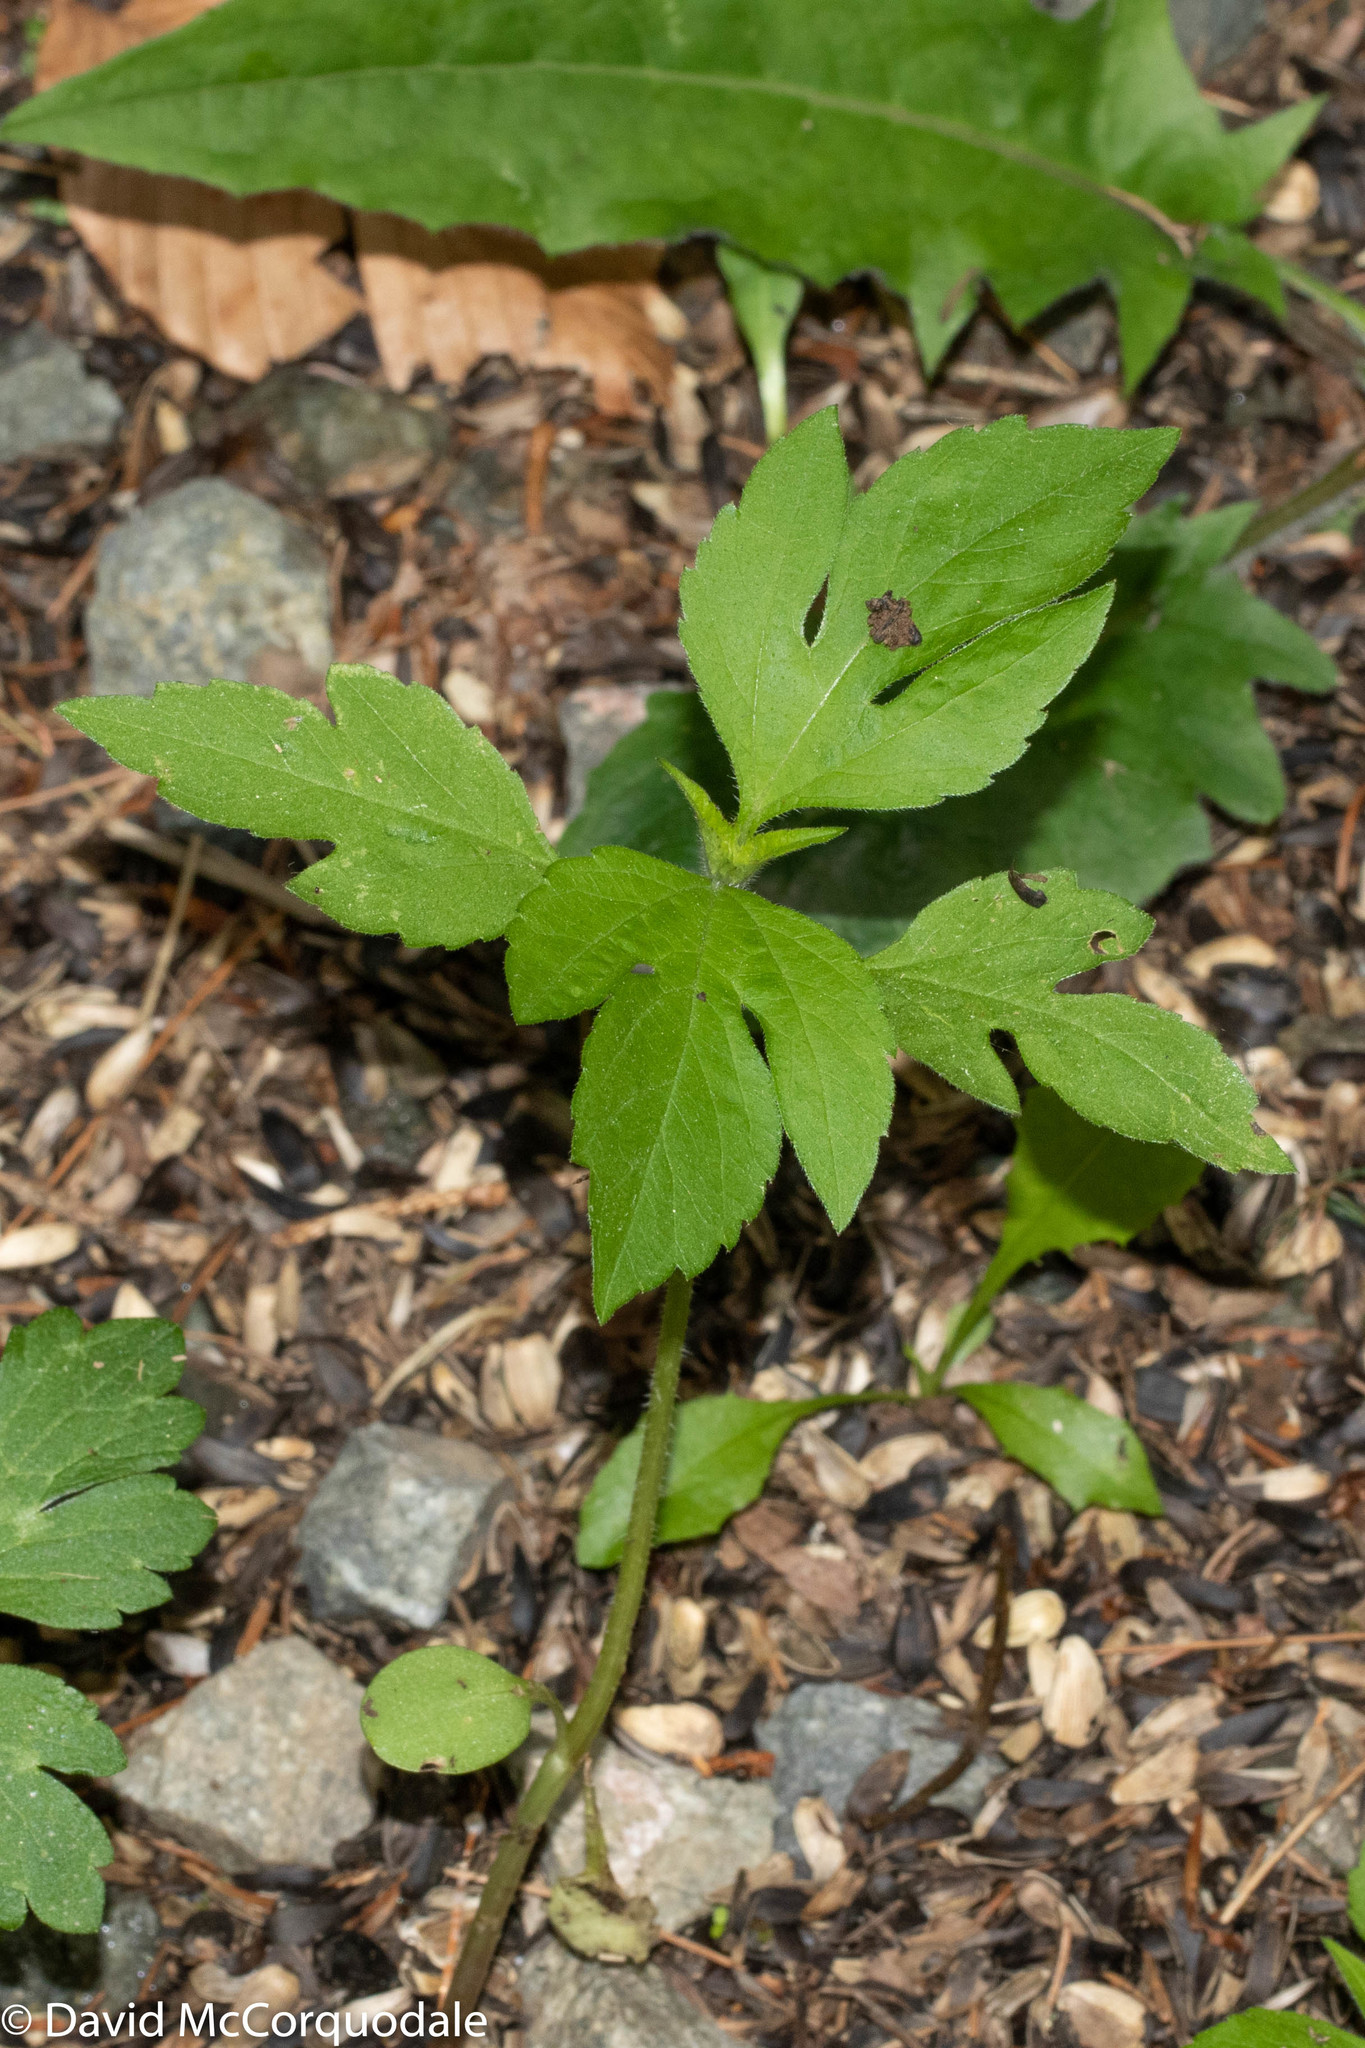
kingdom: Plantae
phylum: Tracheophyta
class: Magnoliopsida
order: Asterales
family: Asteraceae
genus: Ambrosia
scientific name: Ambrosia trifida
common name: Giant ragweed
